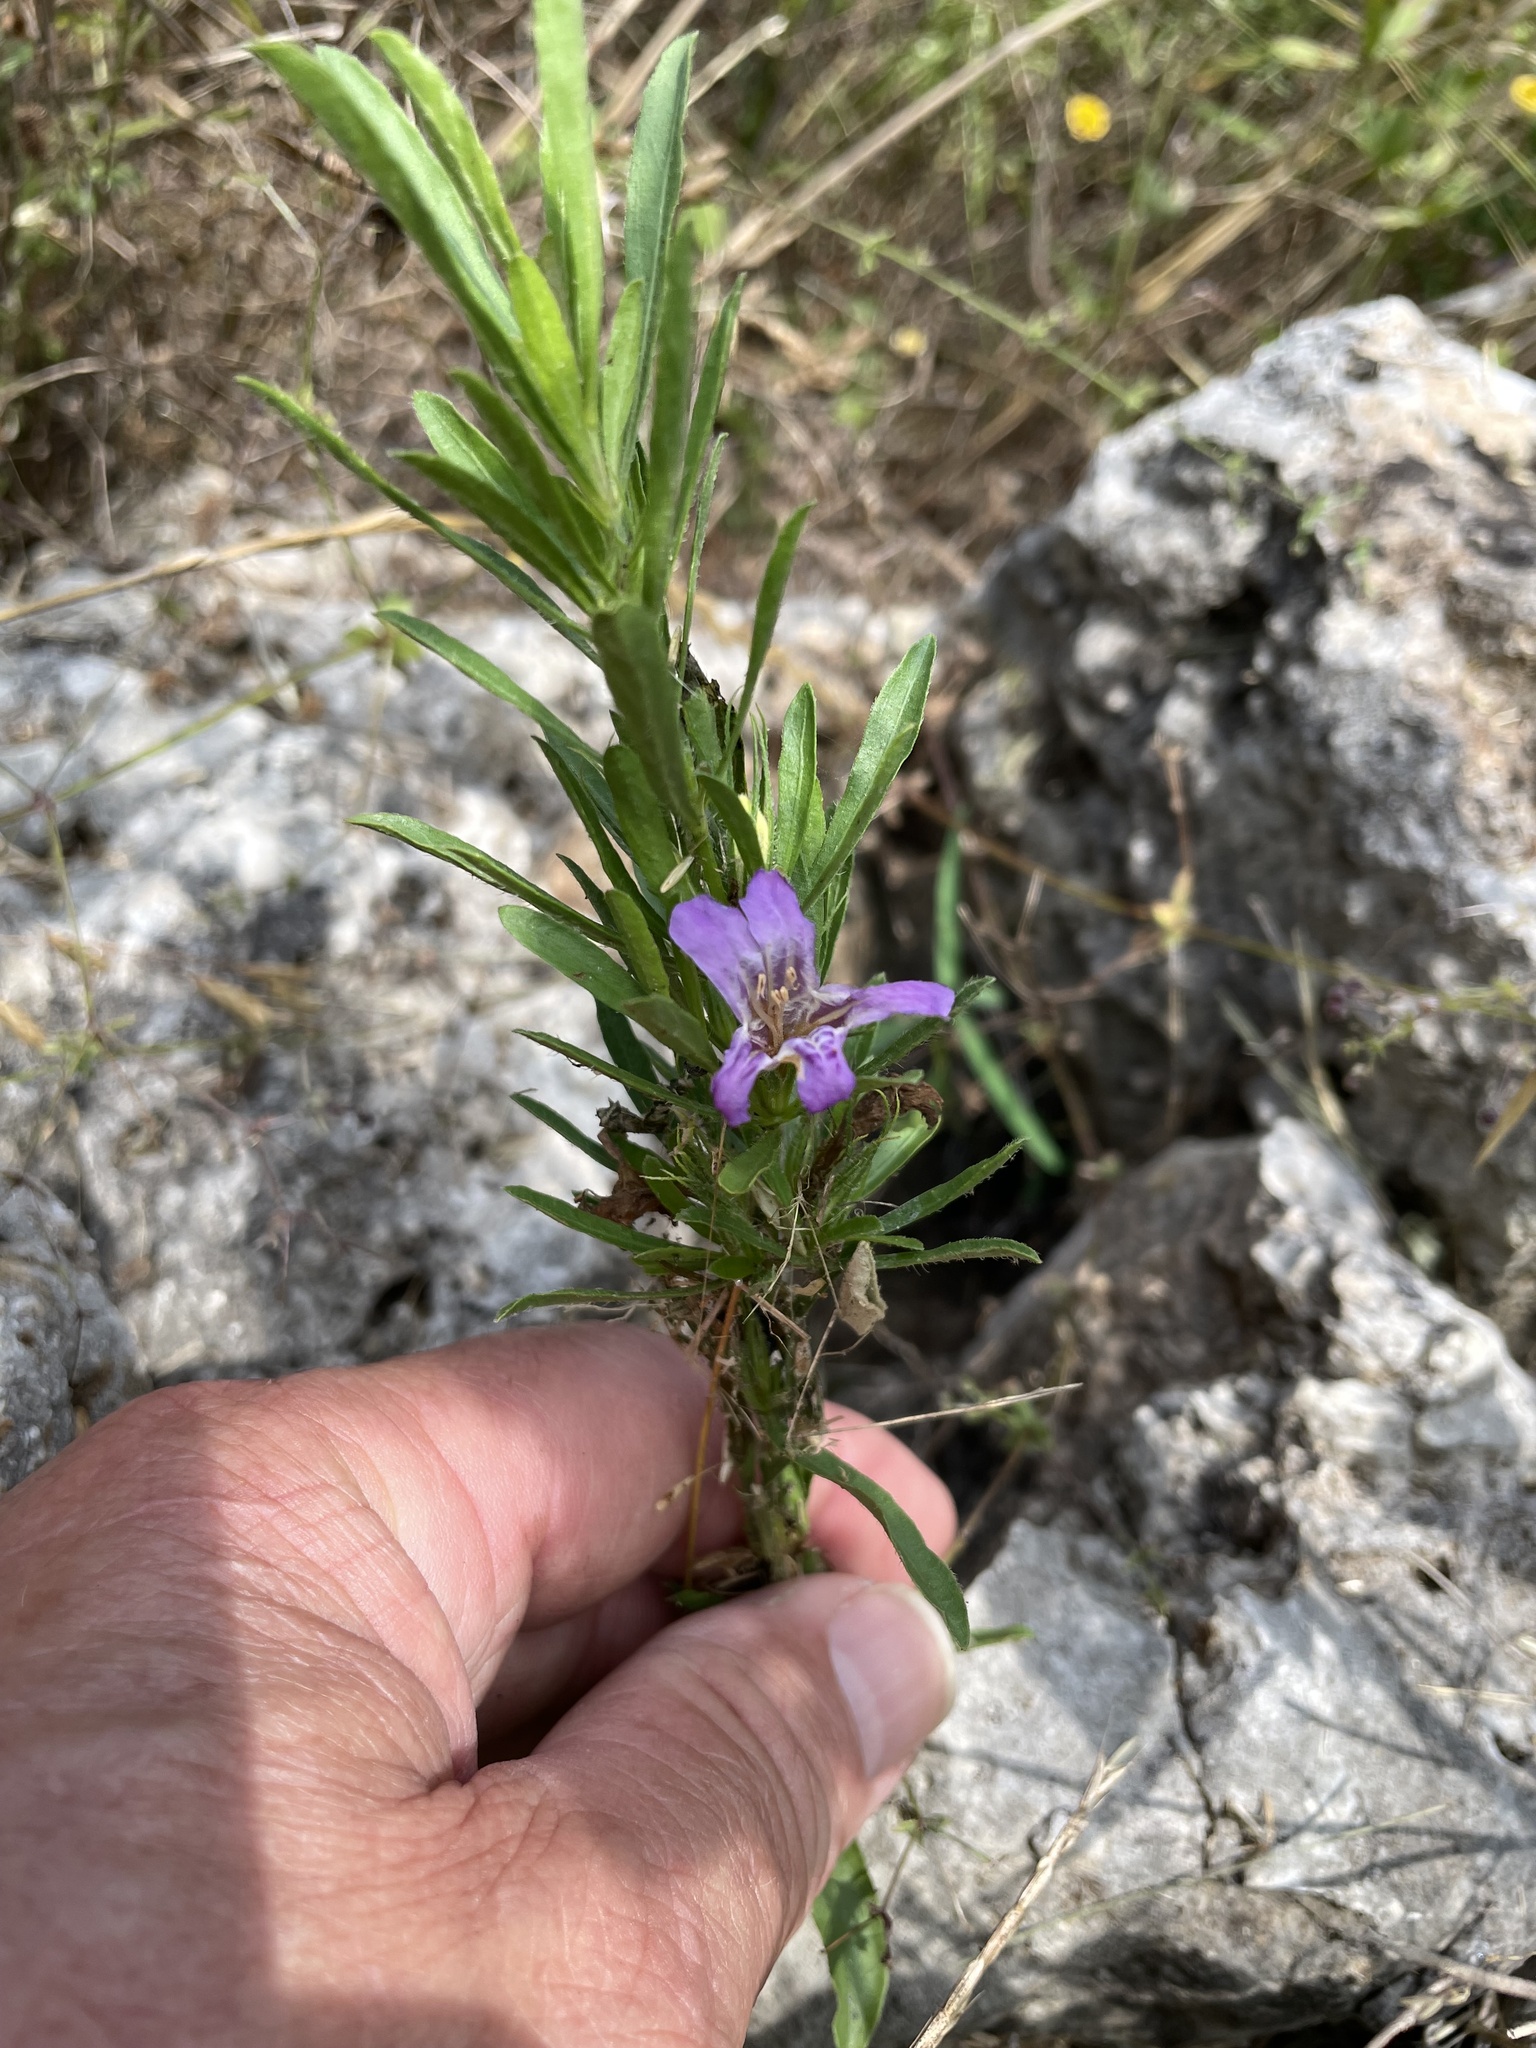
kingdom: Plantae
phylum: Tracheophyta
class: Magnoliopsida
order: Lamiales
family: Acanthaceae
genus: Dyschoriste
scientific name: Dyschoriste linearis
